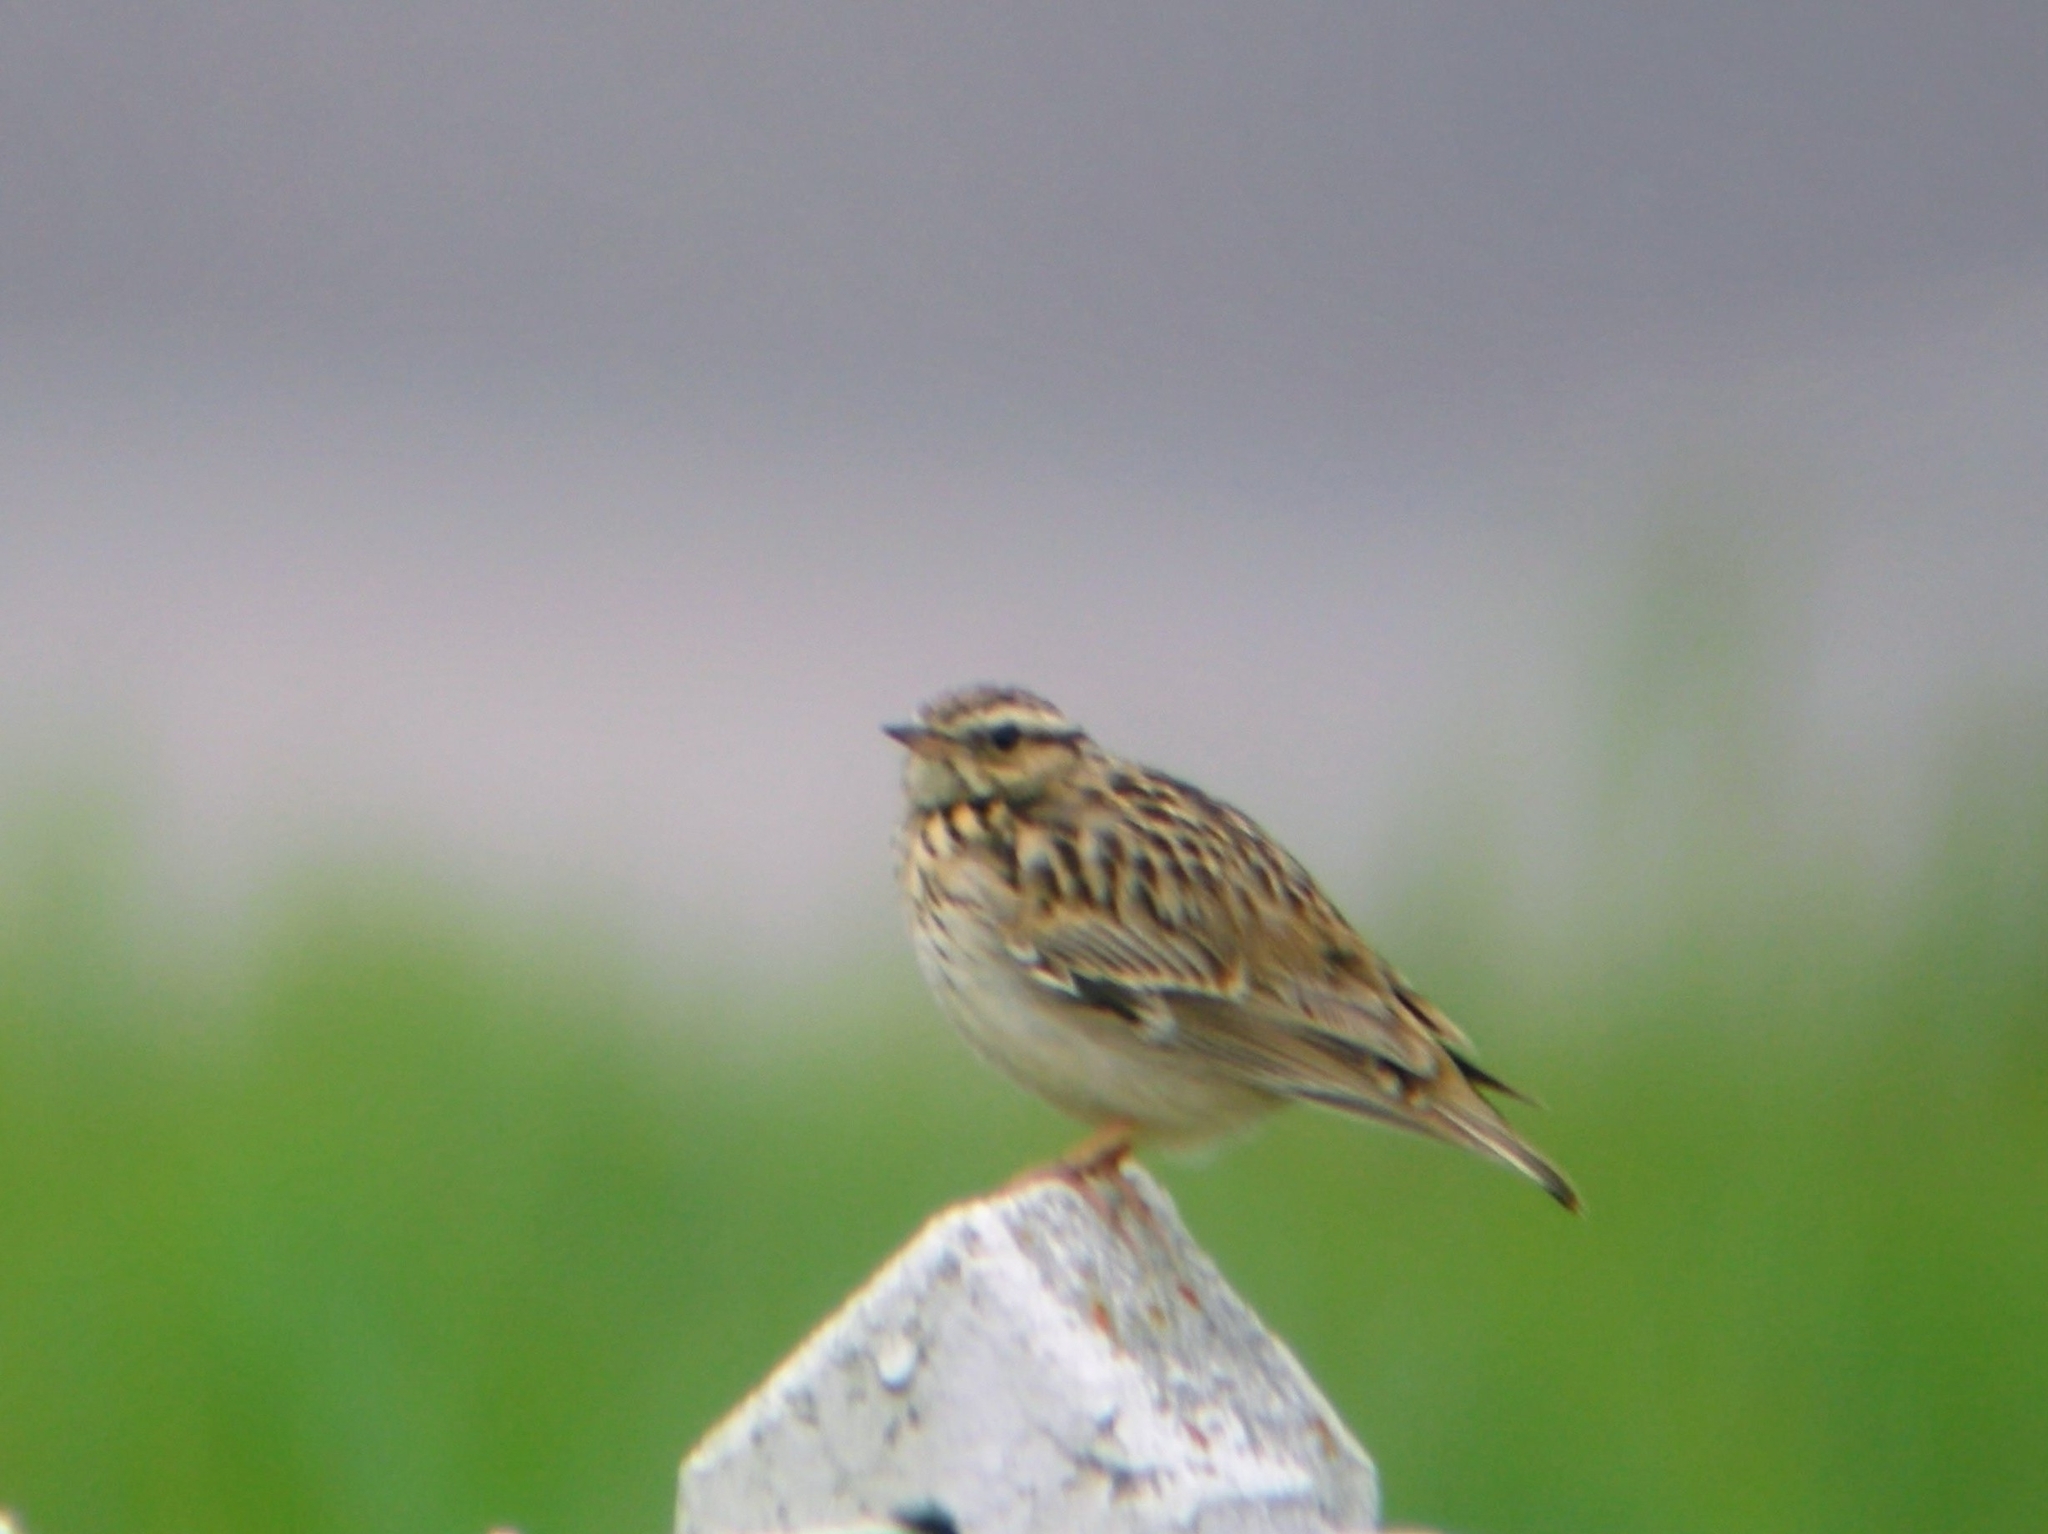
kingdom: Animalia
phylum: Chordata
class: Aves
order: Passeriformes
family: Alaudidae
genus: Lullula
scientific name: Lullula arborea
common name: Woodlark
